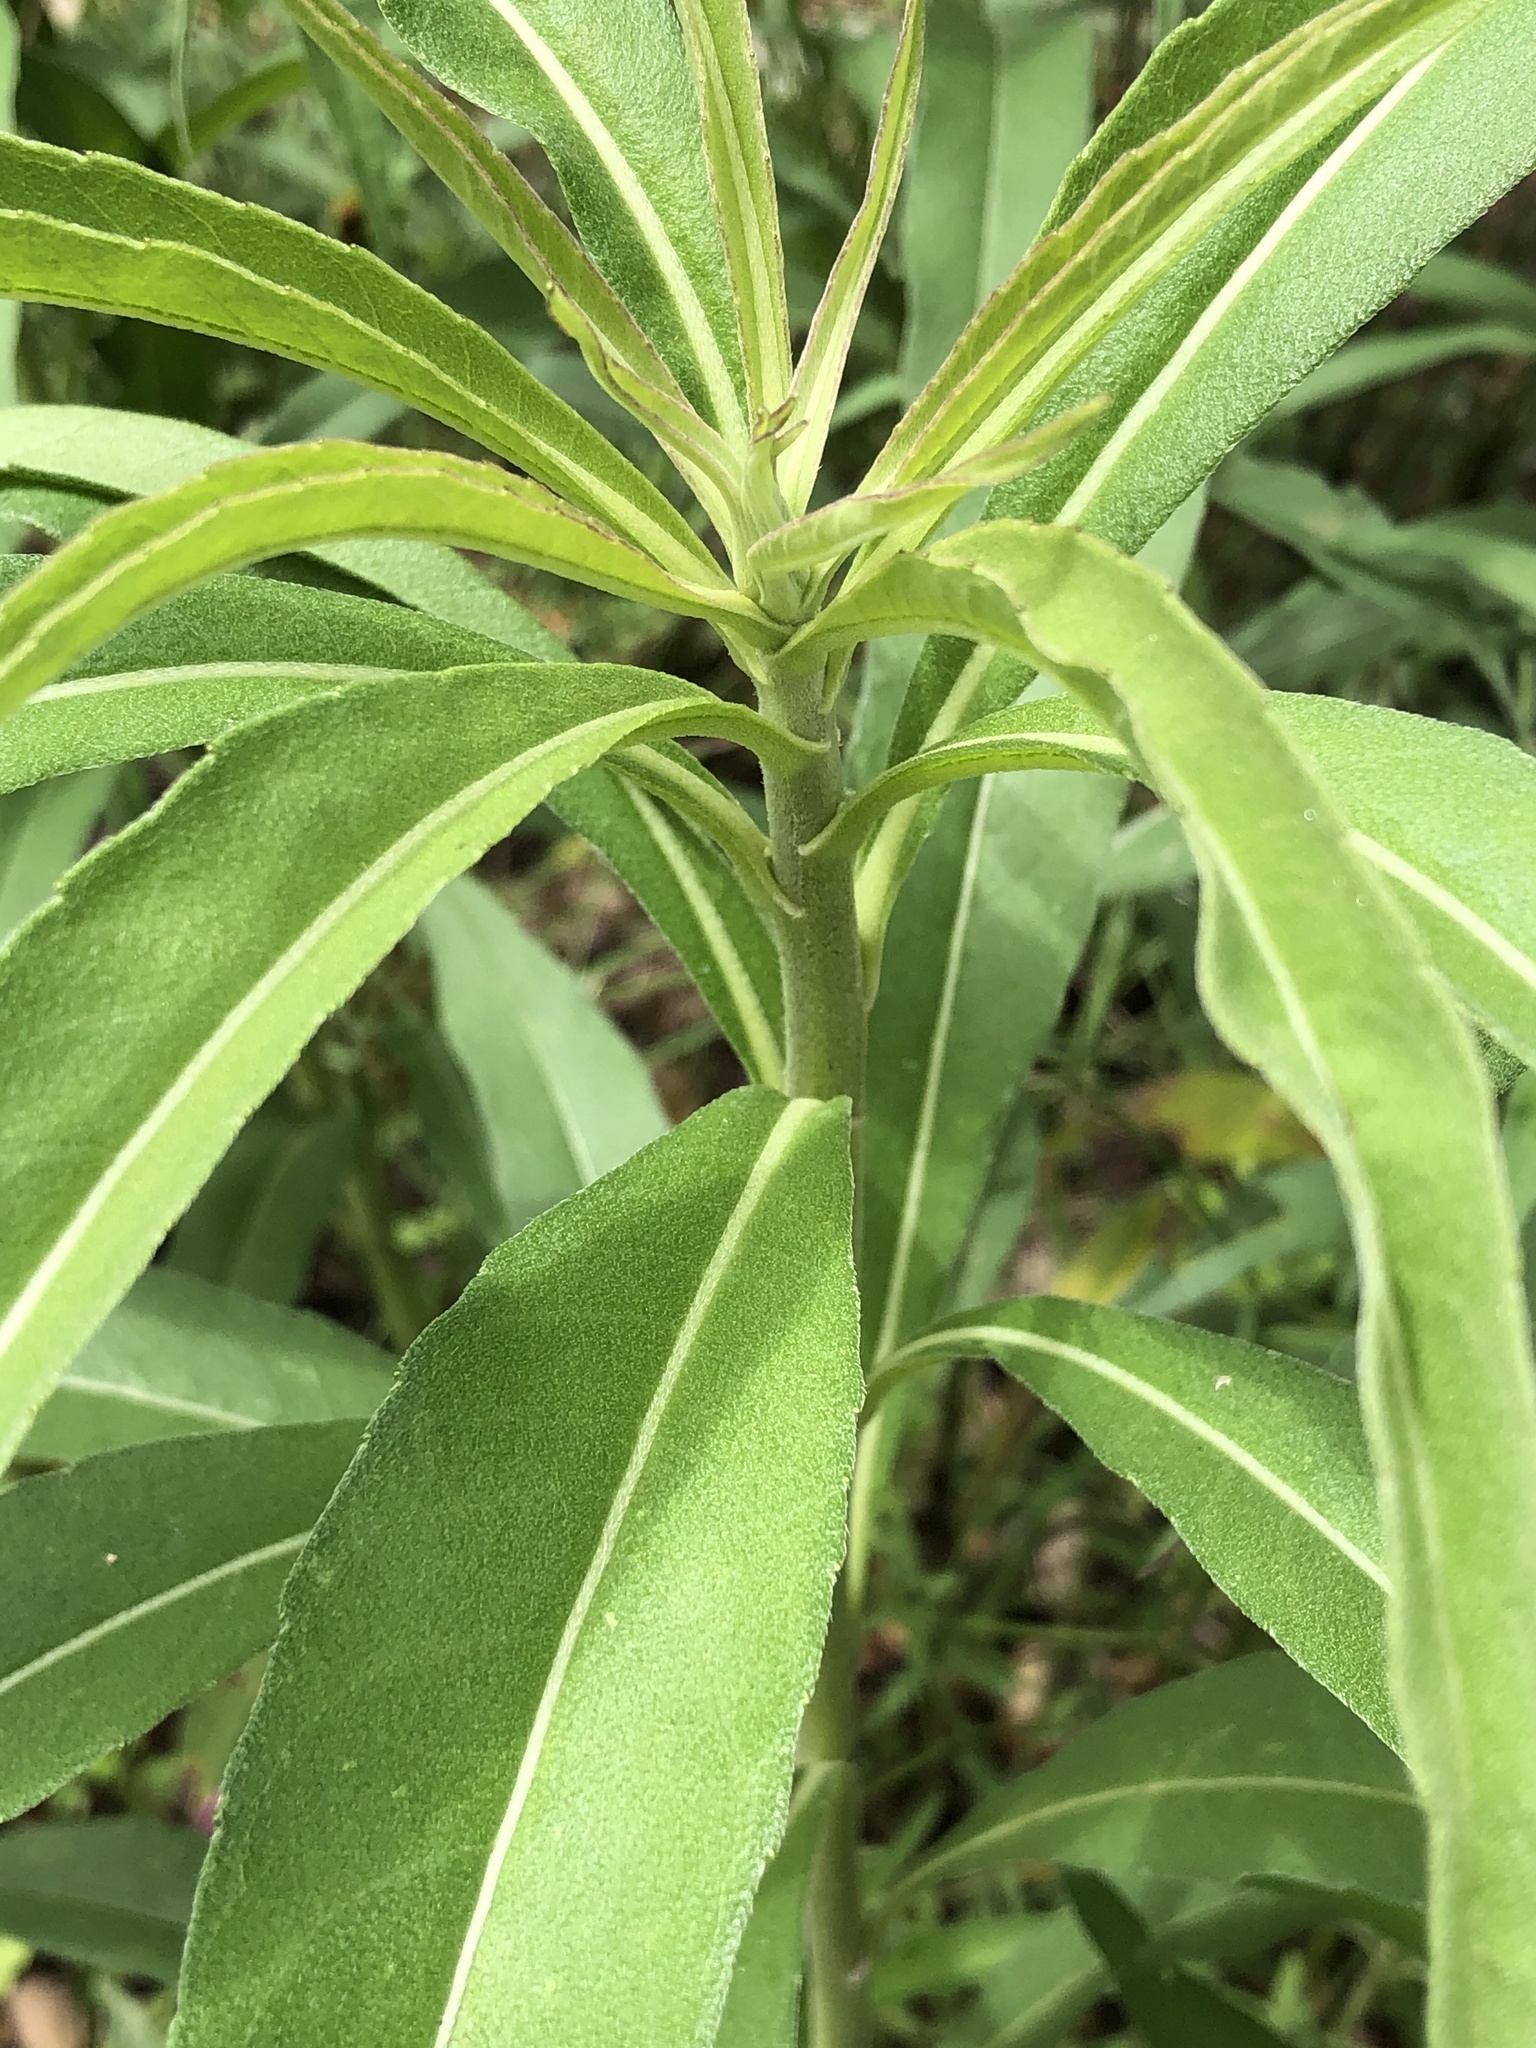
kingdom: Plantae
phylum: Tracheophyta
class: Magnoliopsida
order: Asterales
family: Asteraceae
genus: Helianthus
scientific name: Helianthus maximiliani
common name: Maximilian's sunflower
